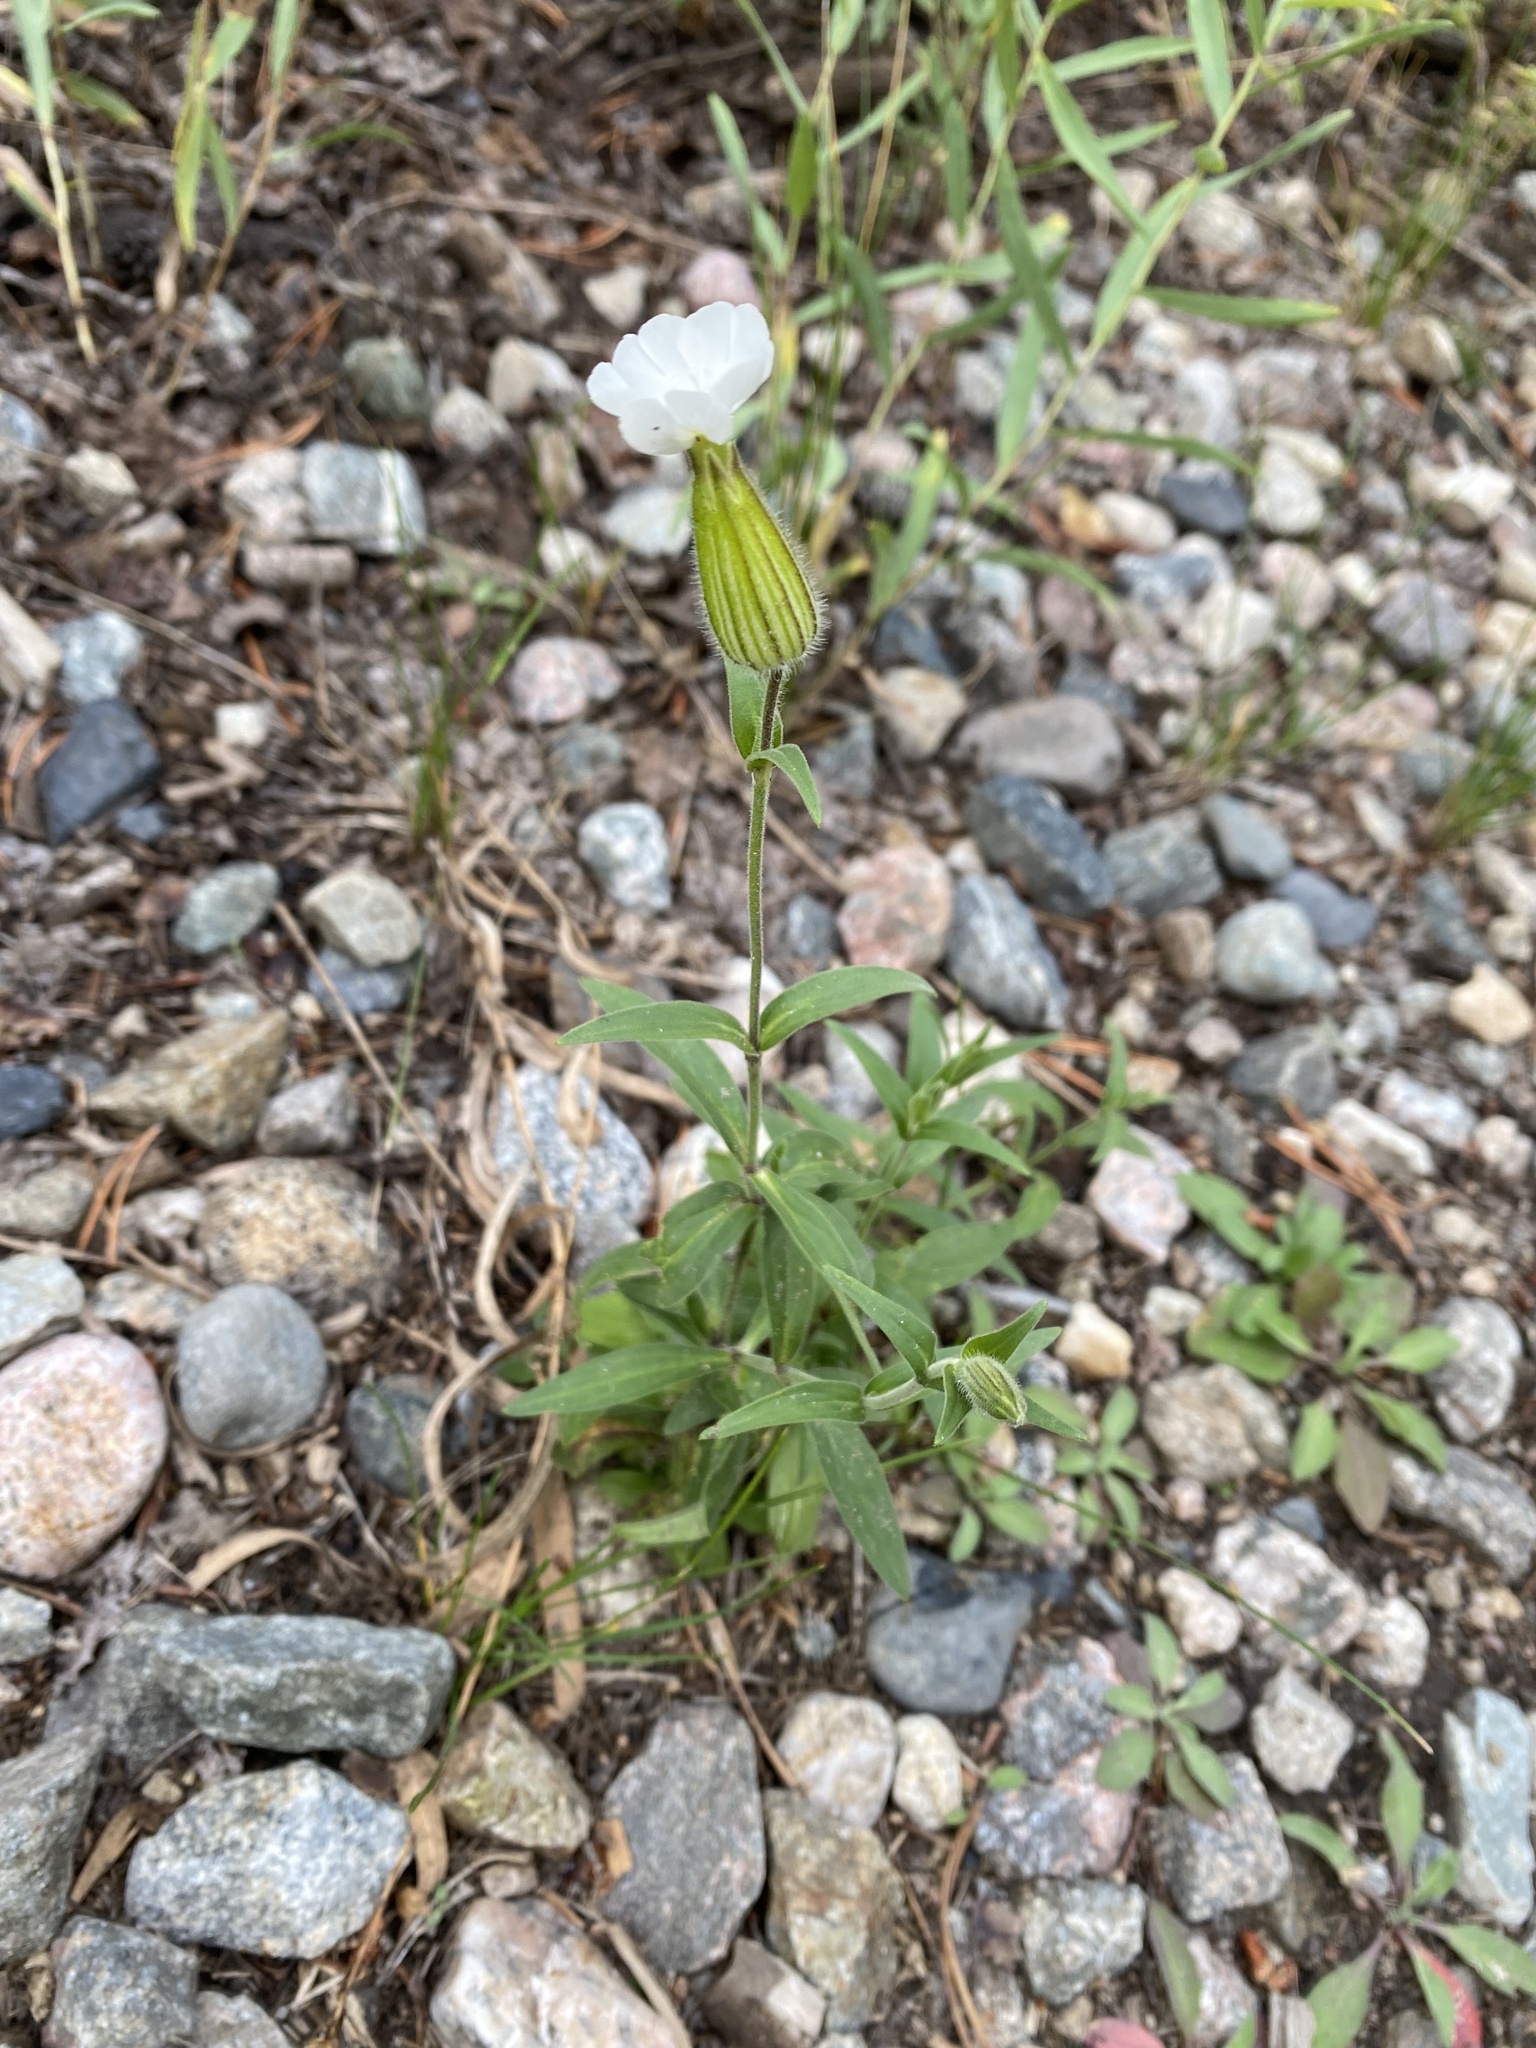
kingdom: Plantae
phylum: Tracheophyta
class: Magnoliopsida
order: Caryophyllales
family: Caryophyllaceae
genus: Silene
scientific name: Silene latifolia
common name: White campion
